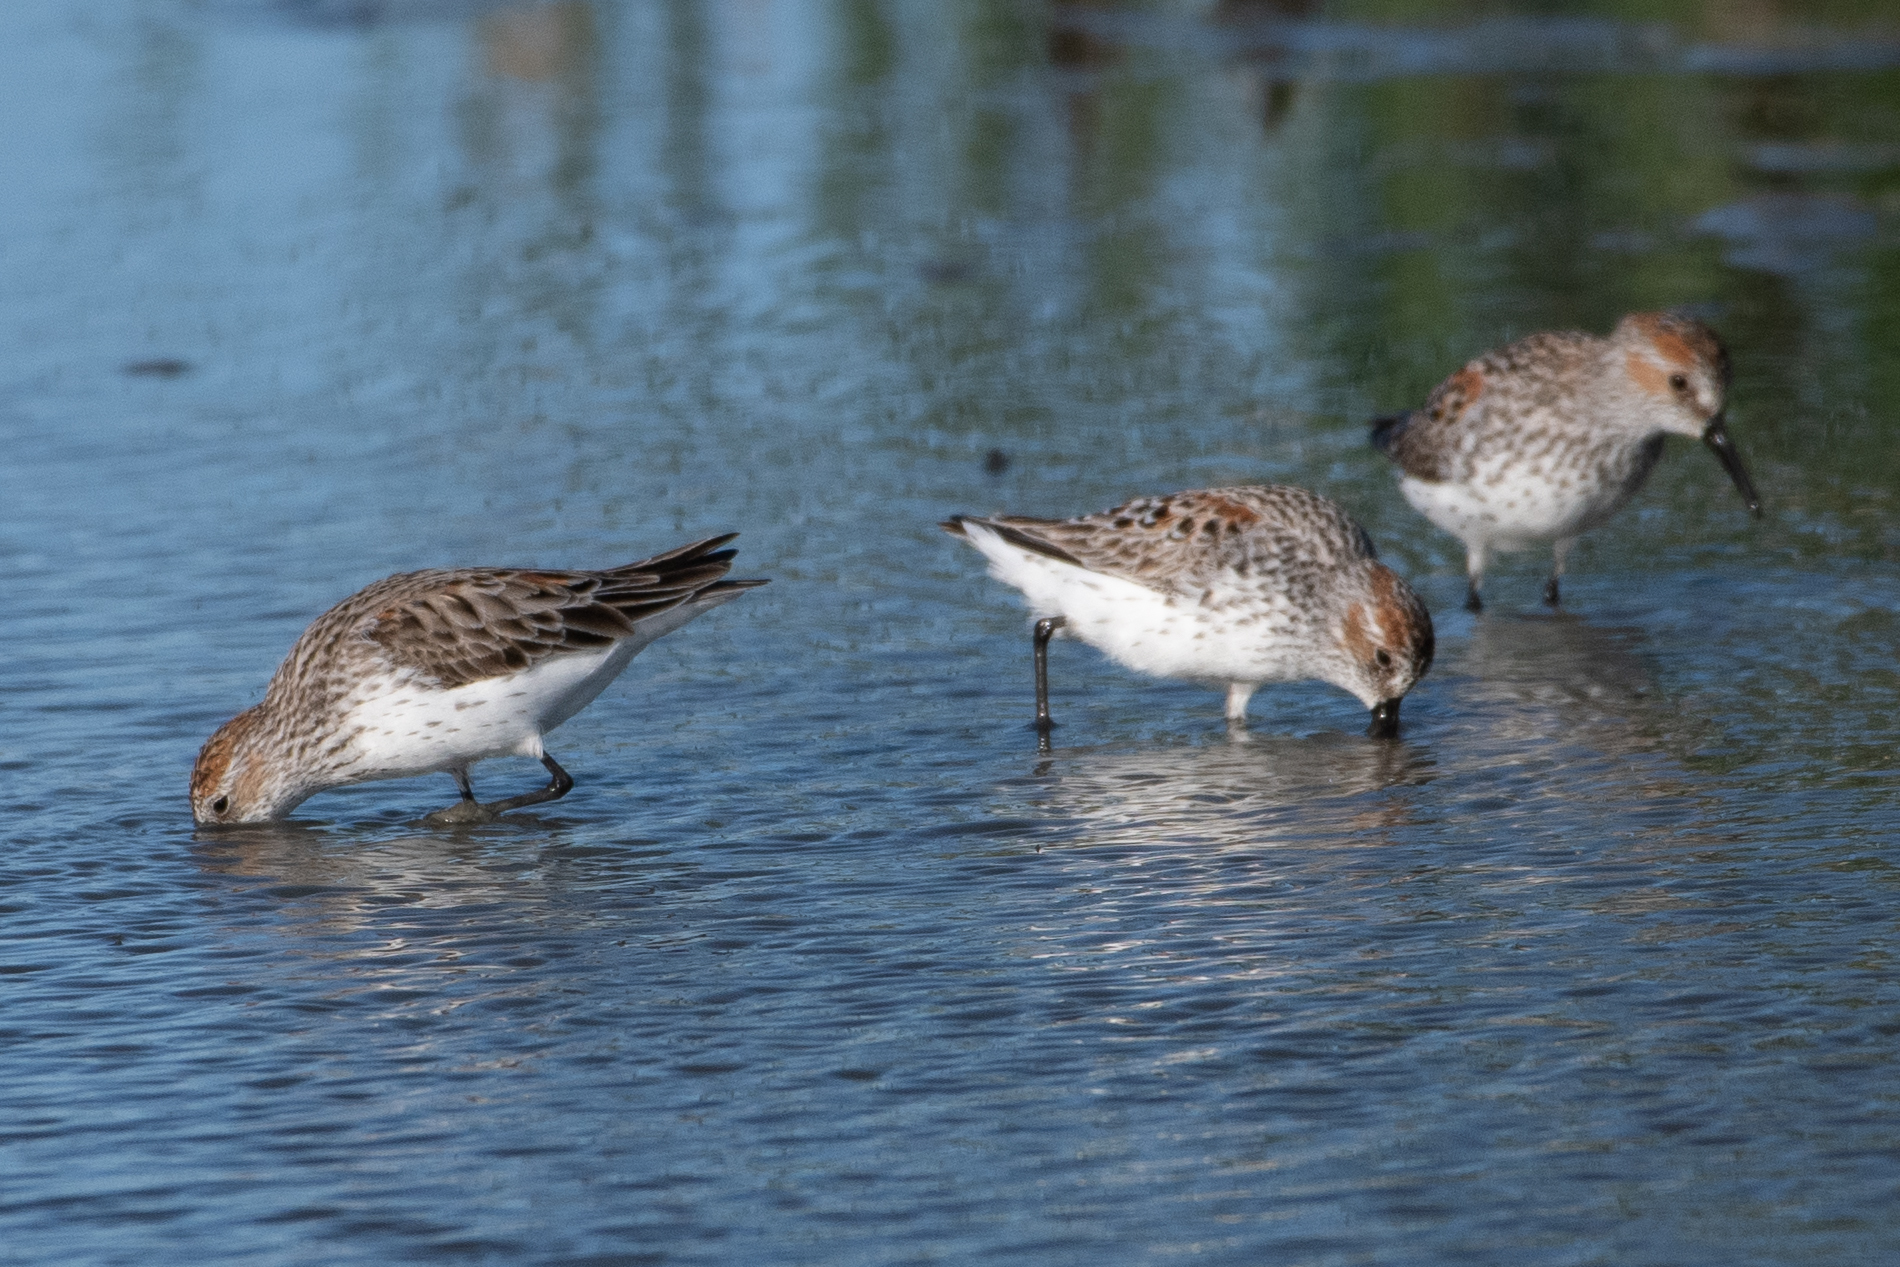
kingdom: Animalia
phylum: Chordata
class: Aves
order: Charadriiformes
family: Scolopacidae
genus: Calidris
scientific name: Calidris mauri
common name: Western sandpiper
